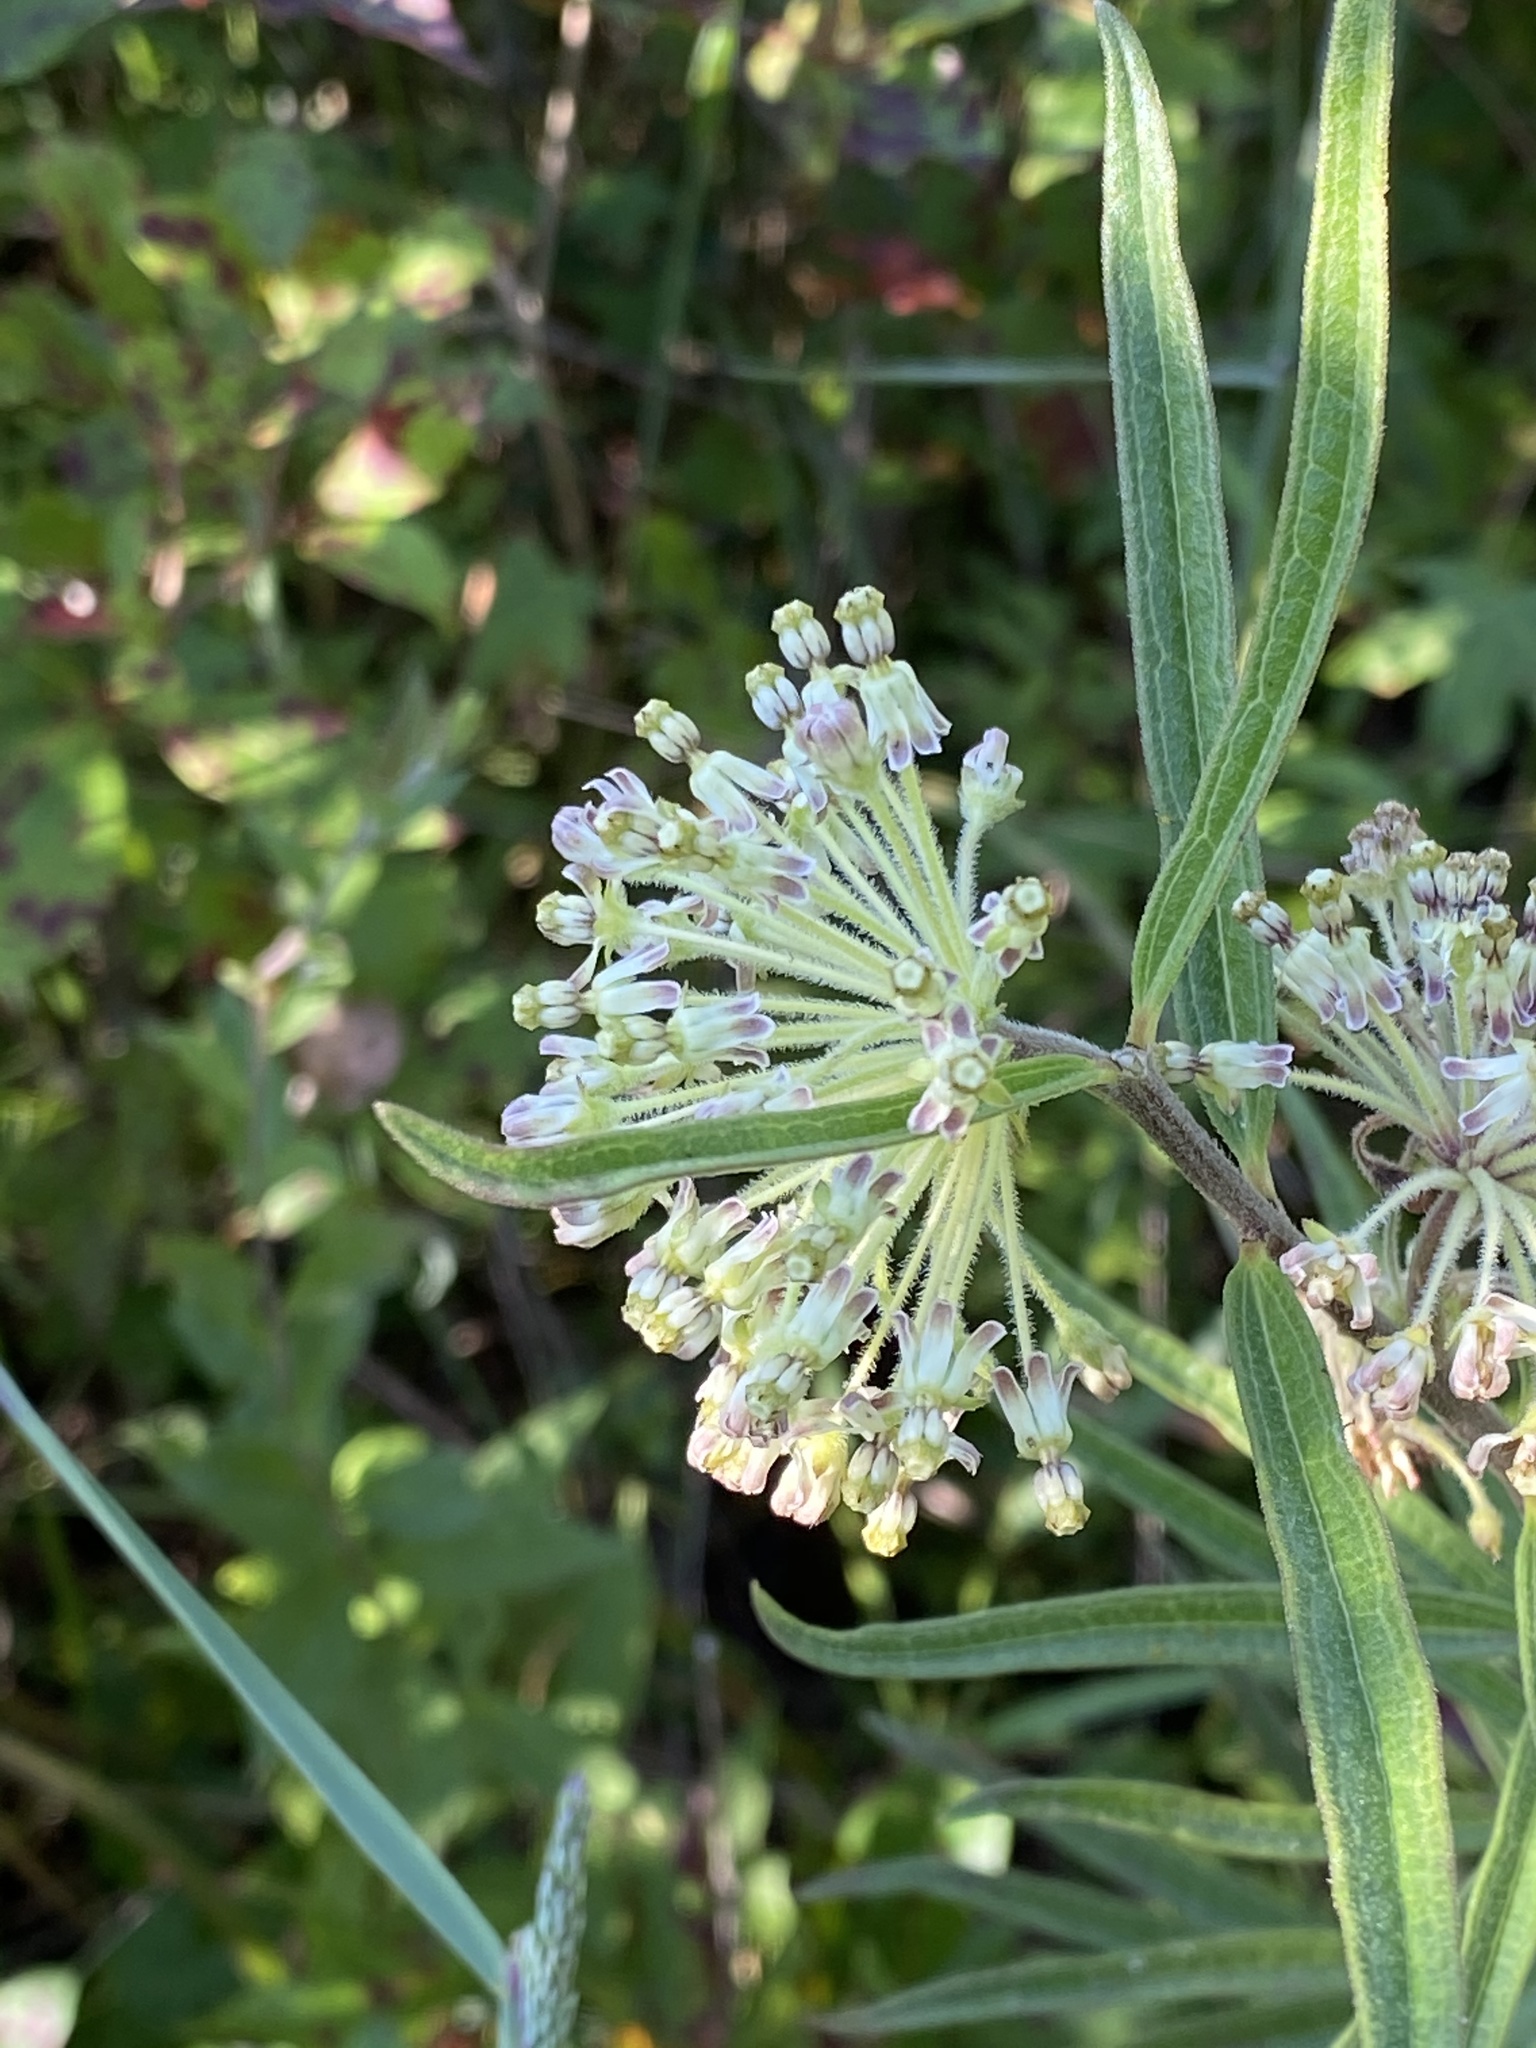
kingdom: Plantae
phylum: Tracheophyta
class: Magnoliopsida
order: Gentianales
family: Apocynaceae
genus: Asclepias
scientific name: Asclepias hirtella
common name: Prairie milkweed
